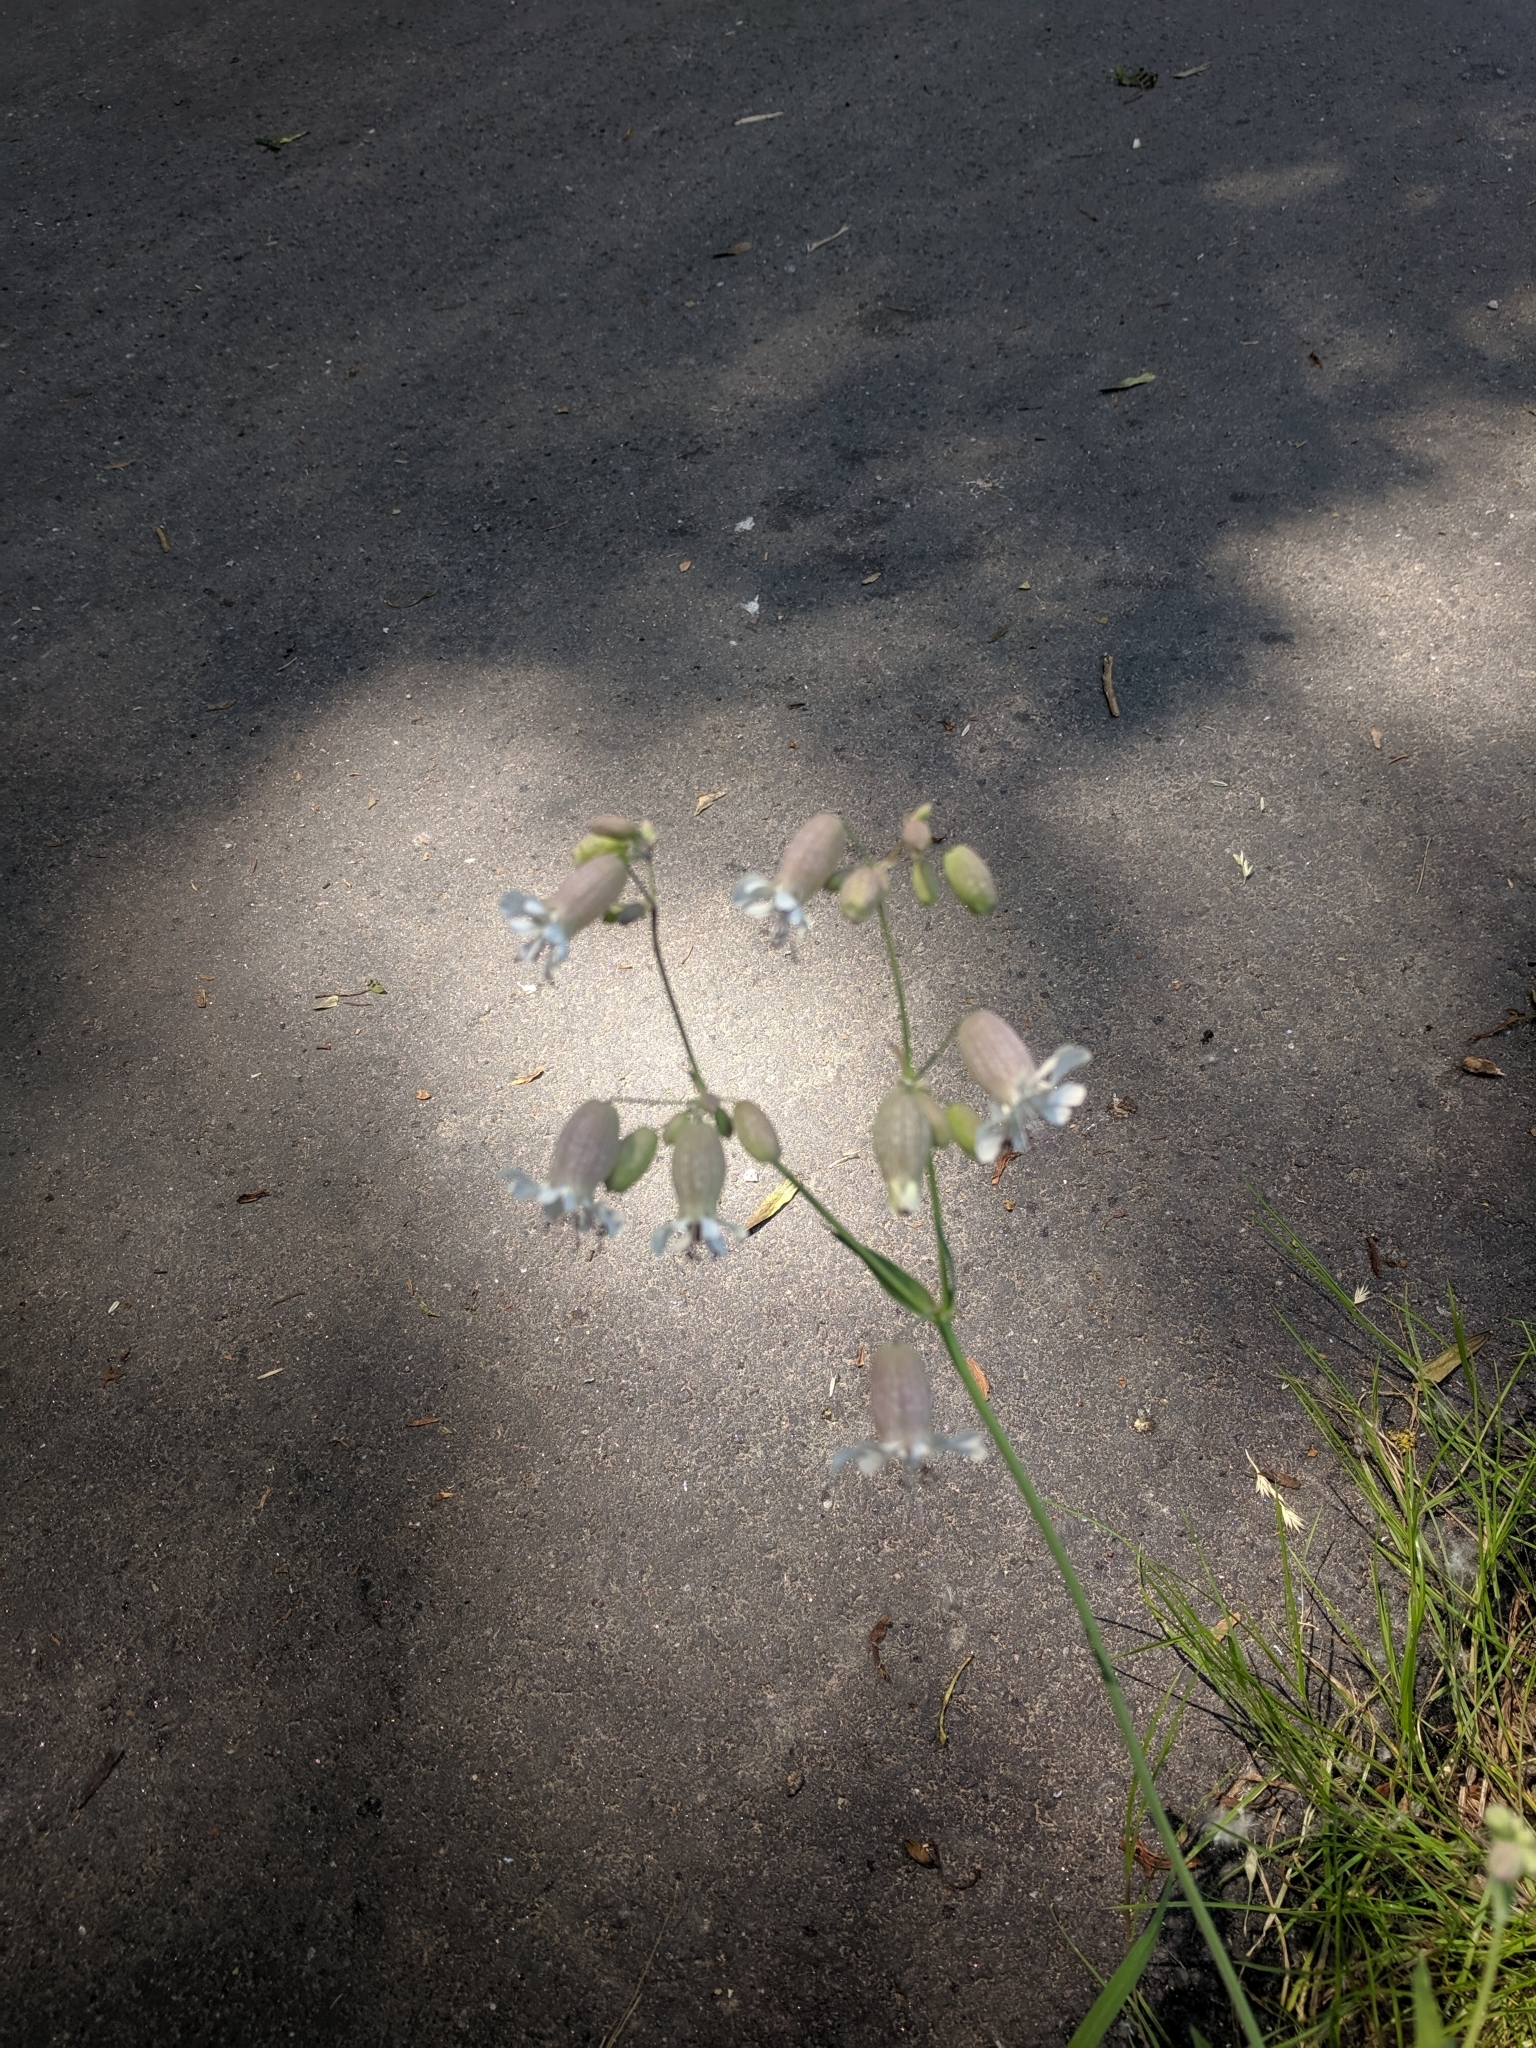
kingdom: Plantae
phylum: Tracheophyta
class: Magnoliopsida
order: Caryophyllales
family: Caryophyllaceae
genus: Silene
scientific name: Silene vulgaris
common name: Bladder campion
